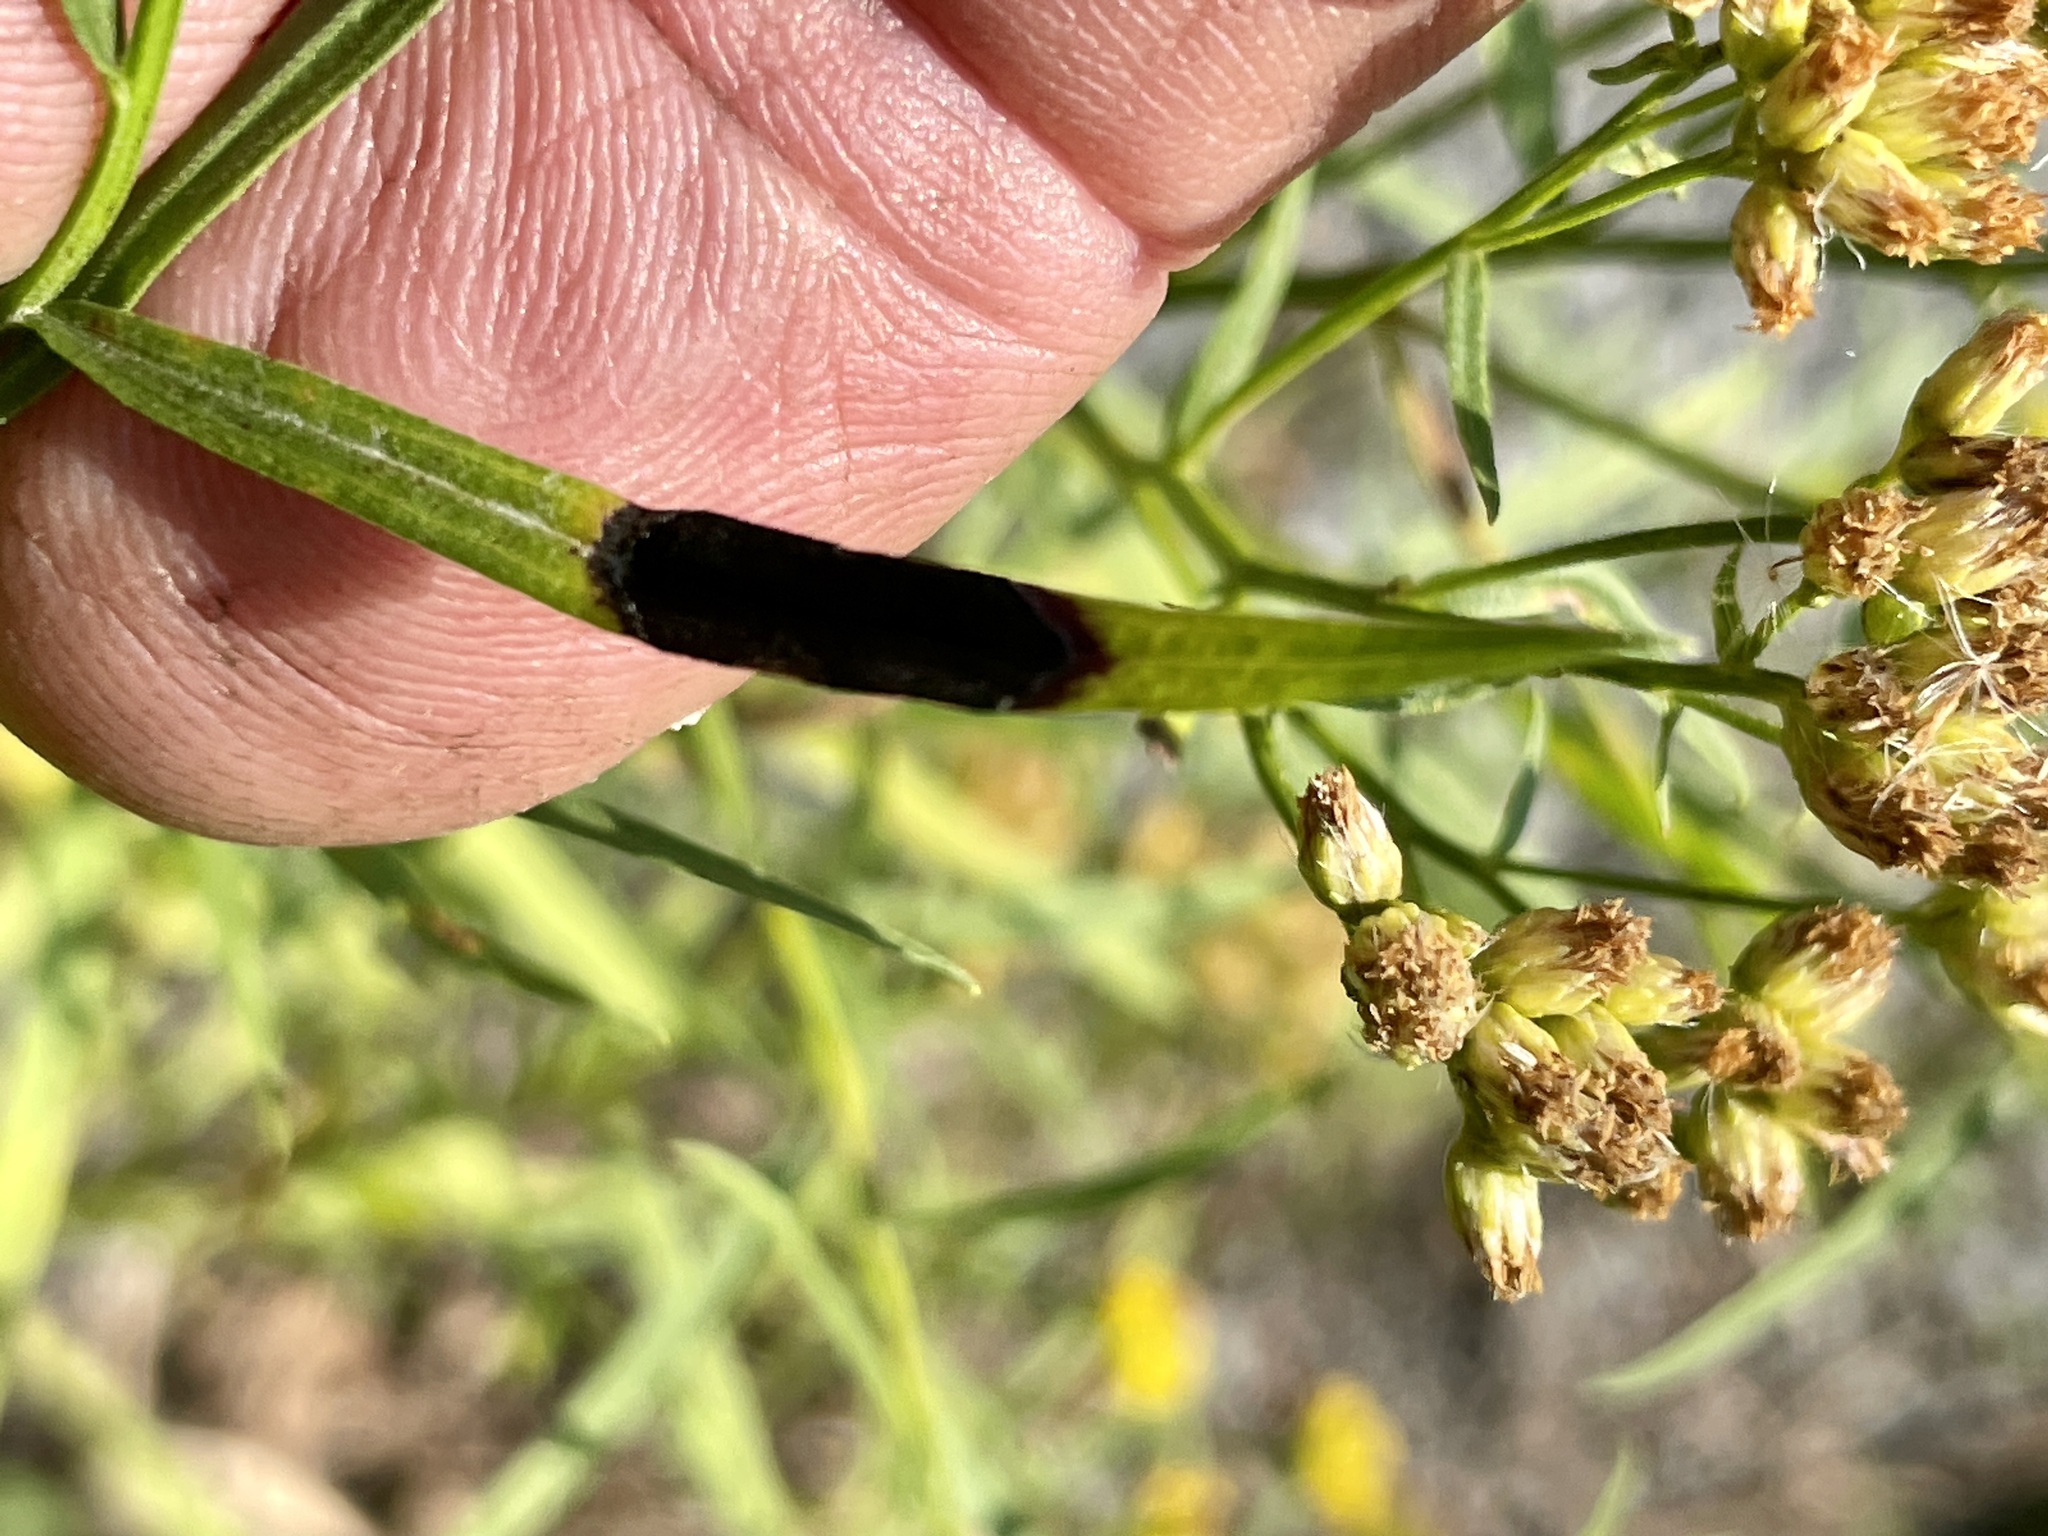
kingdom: Animalia
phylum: Arthropoda
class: Insecta
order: Diptera
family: Cecidomyiidae
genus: Asteromyia
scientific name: Asteromyia euthamiae
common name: Euthamia leaf gall midge
